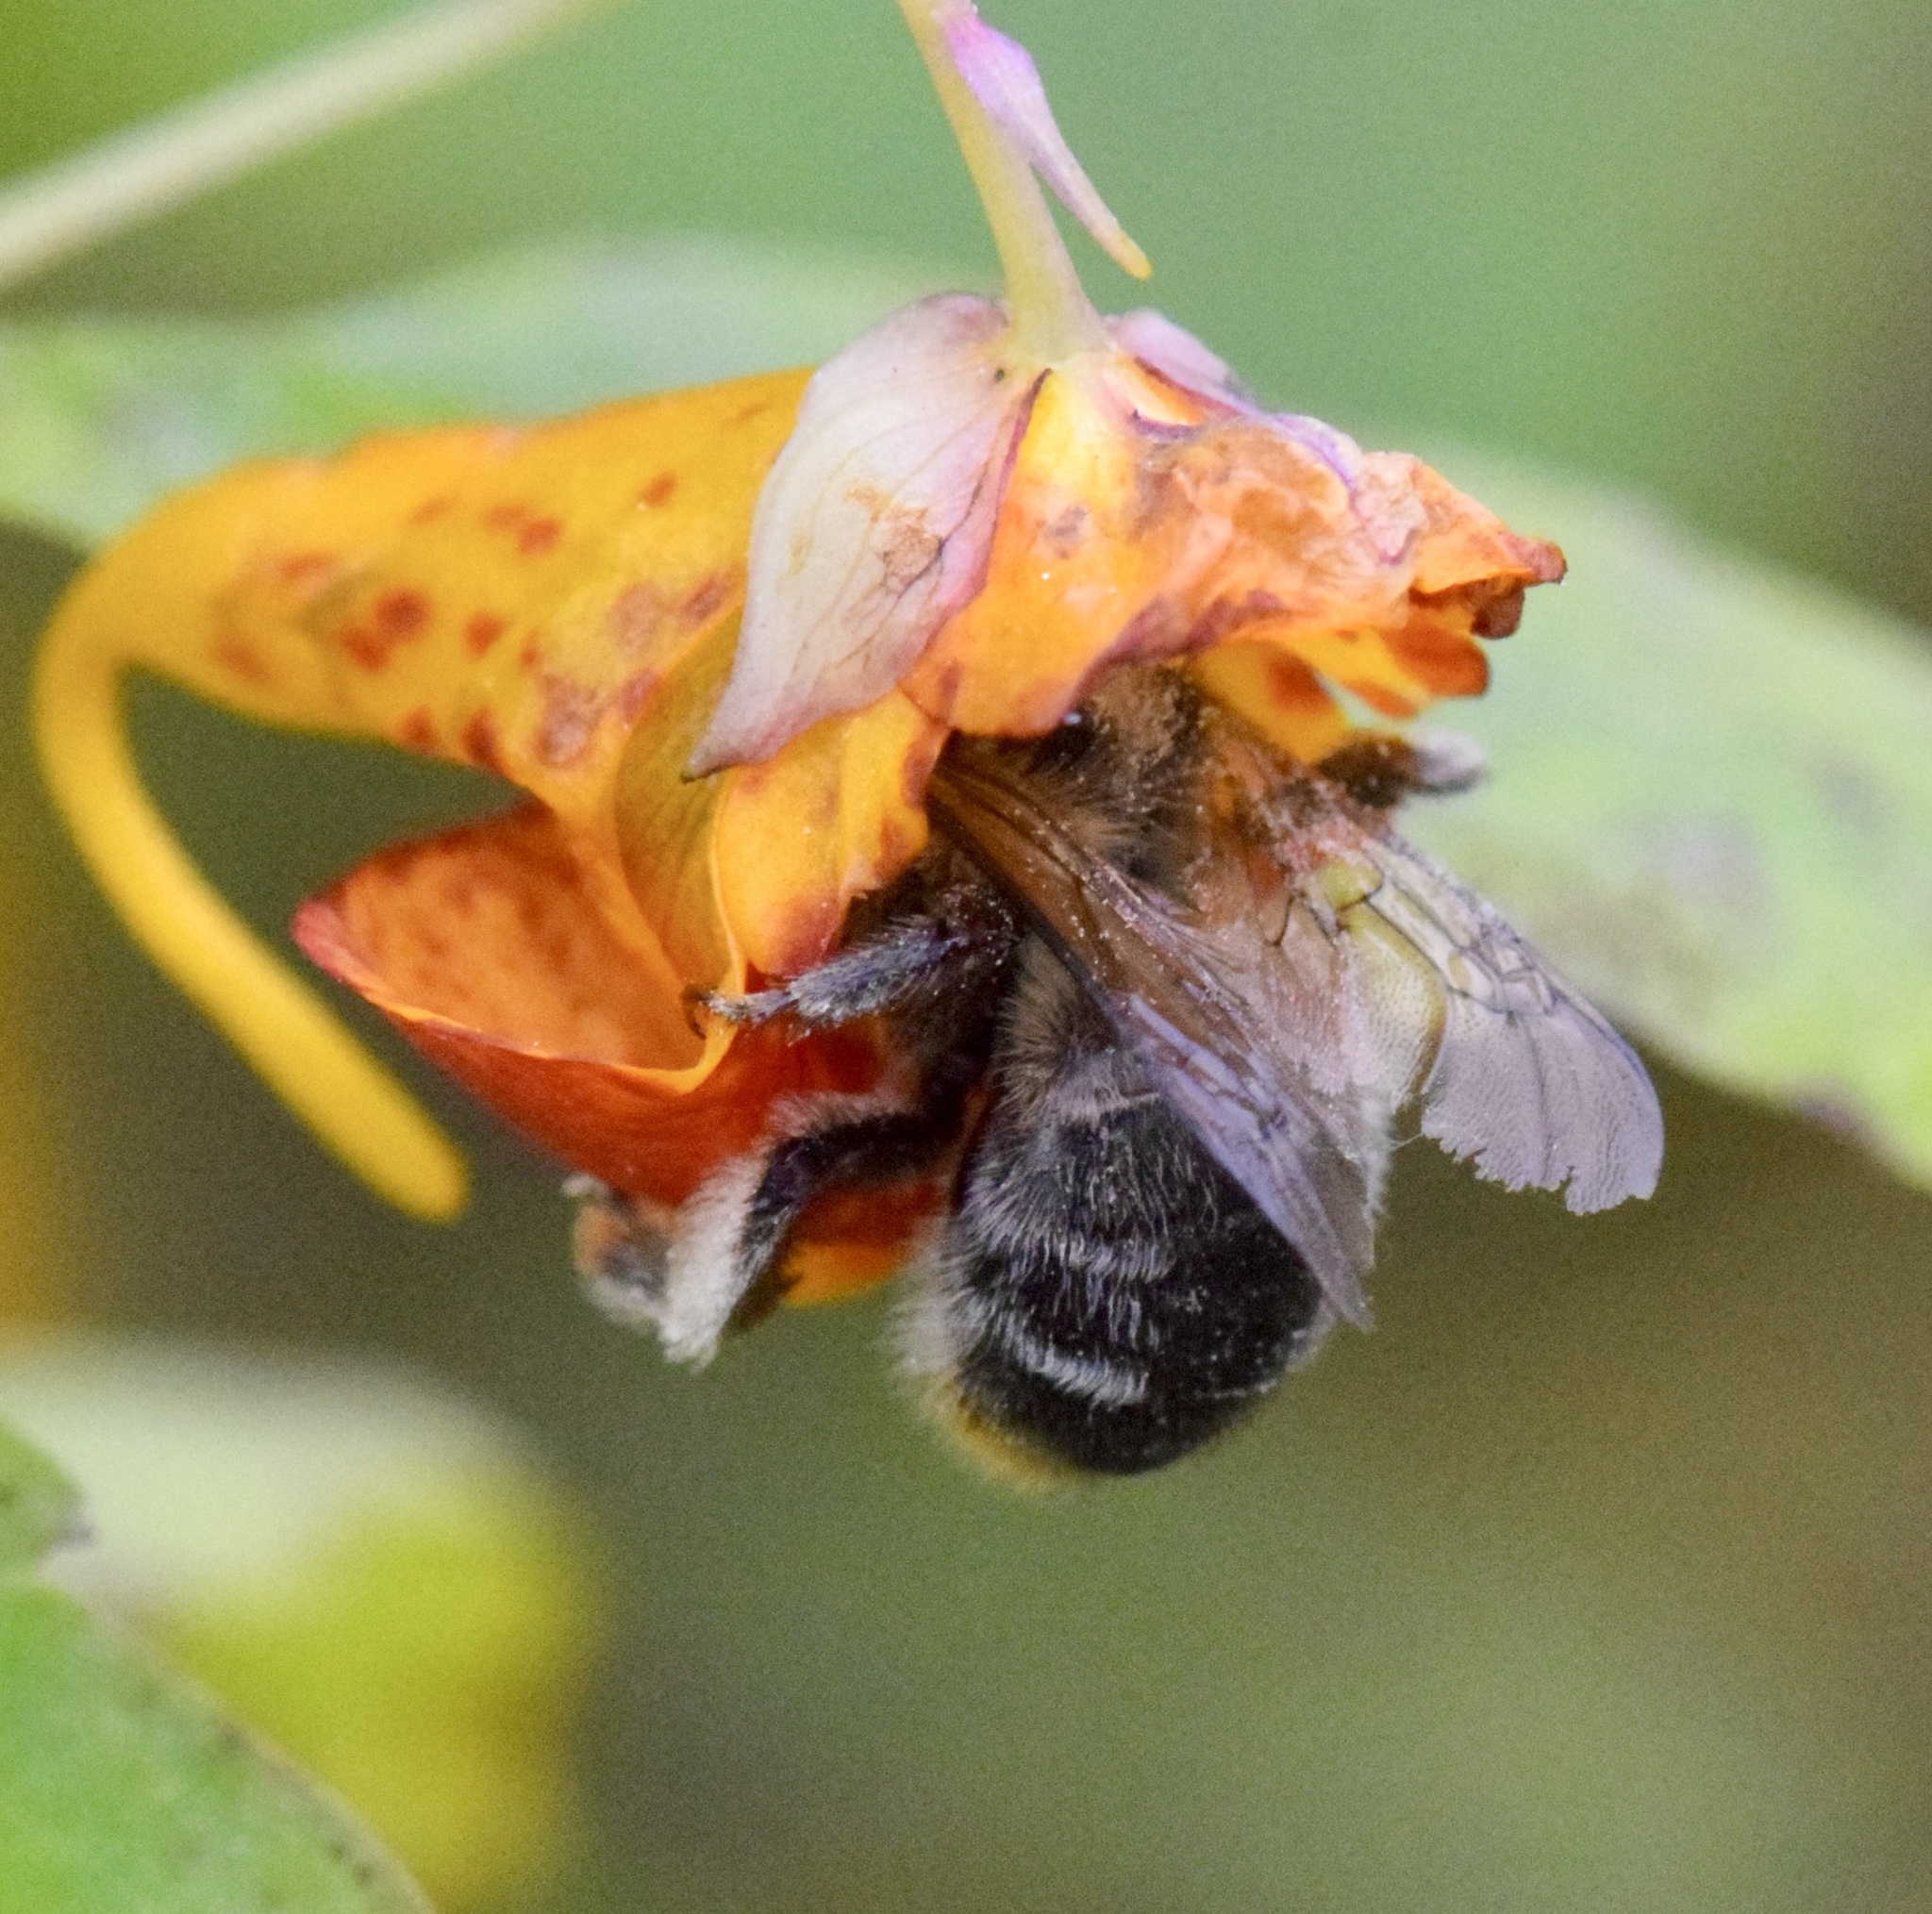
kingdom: Animalia
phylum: Arthropoda
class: Insecta
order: Hymenoptera
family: Apidae
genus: Anthophora
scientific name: Anthophora terminalis
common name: Orange-tipped wood-digger bee
